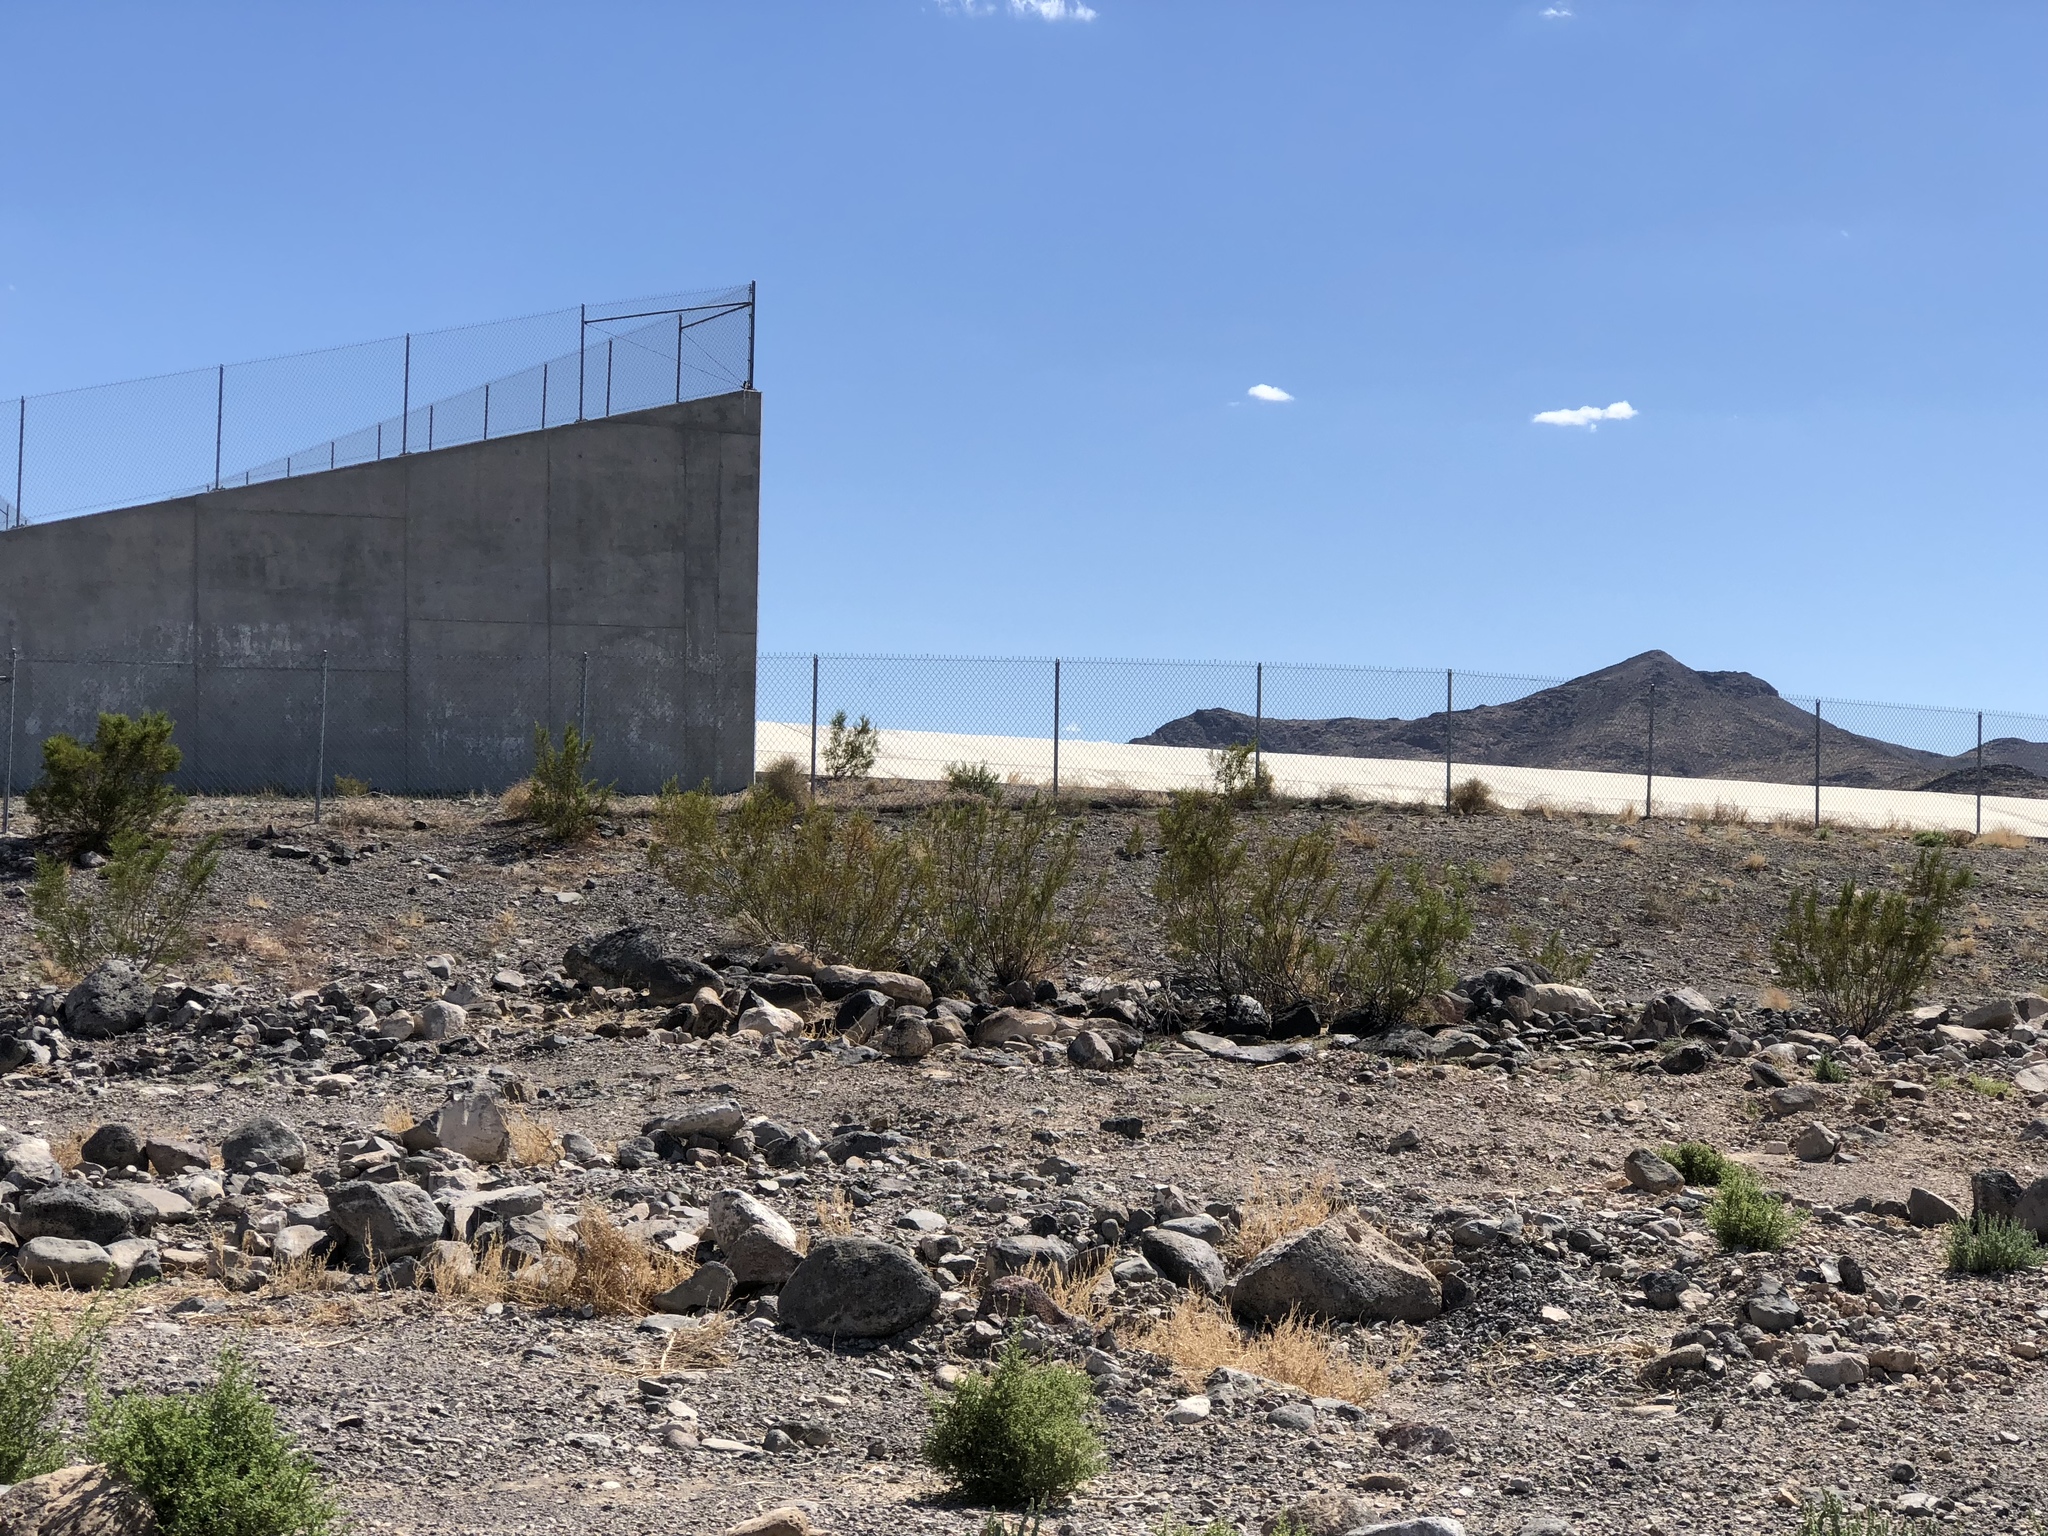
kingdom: Plantae
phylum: Tracheophyta
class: Magnoliopsida
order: Zygophyllales
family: Zygophyllaceae
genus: Larrea
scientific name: Larrea tridentata
